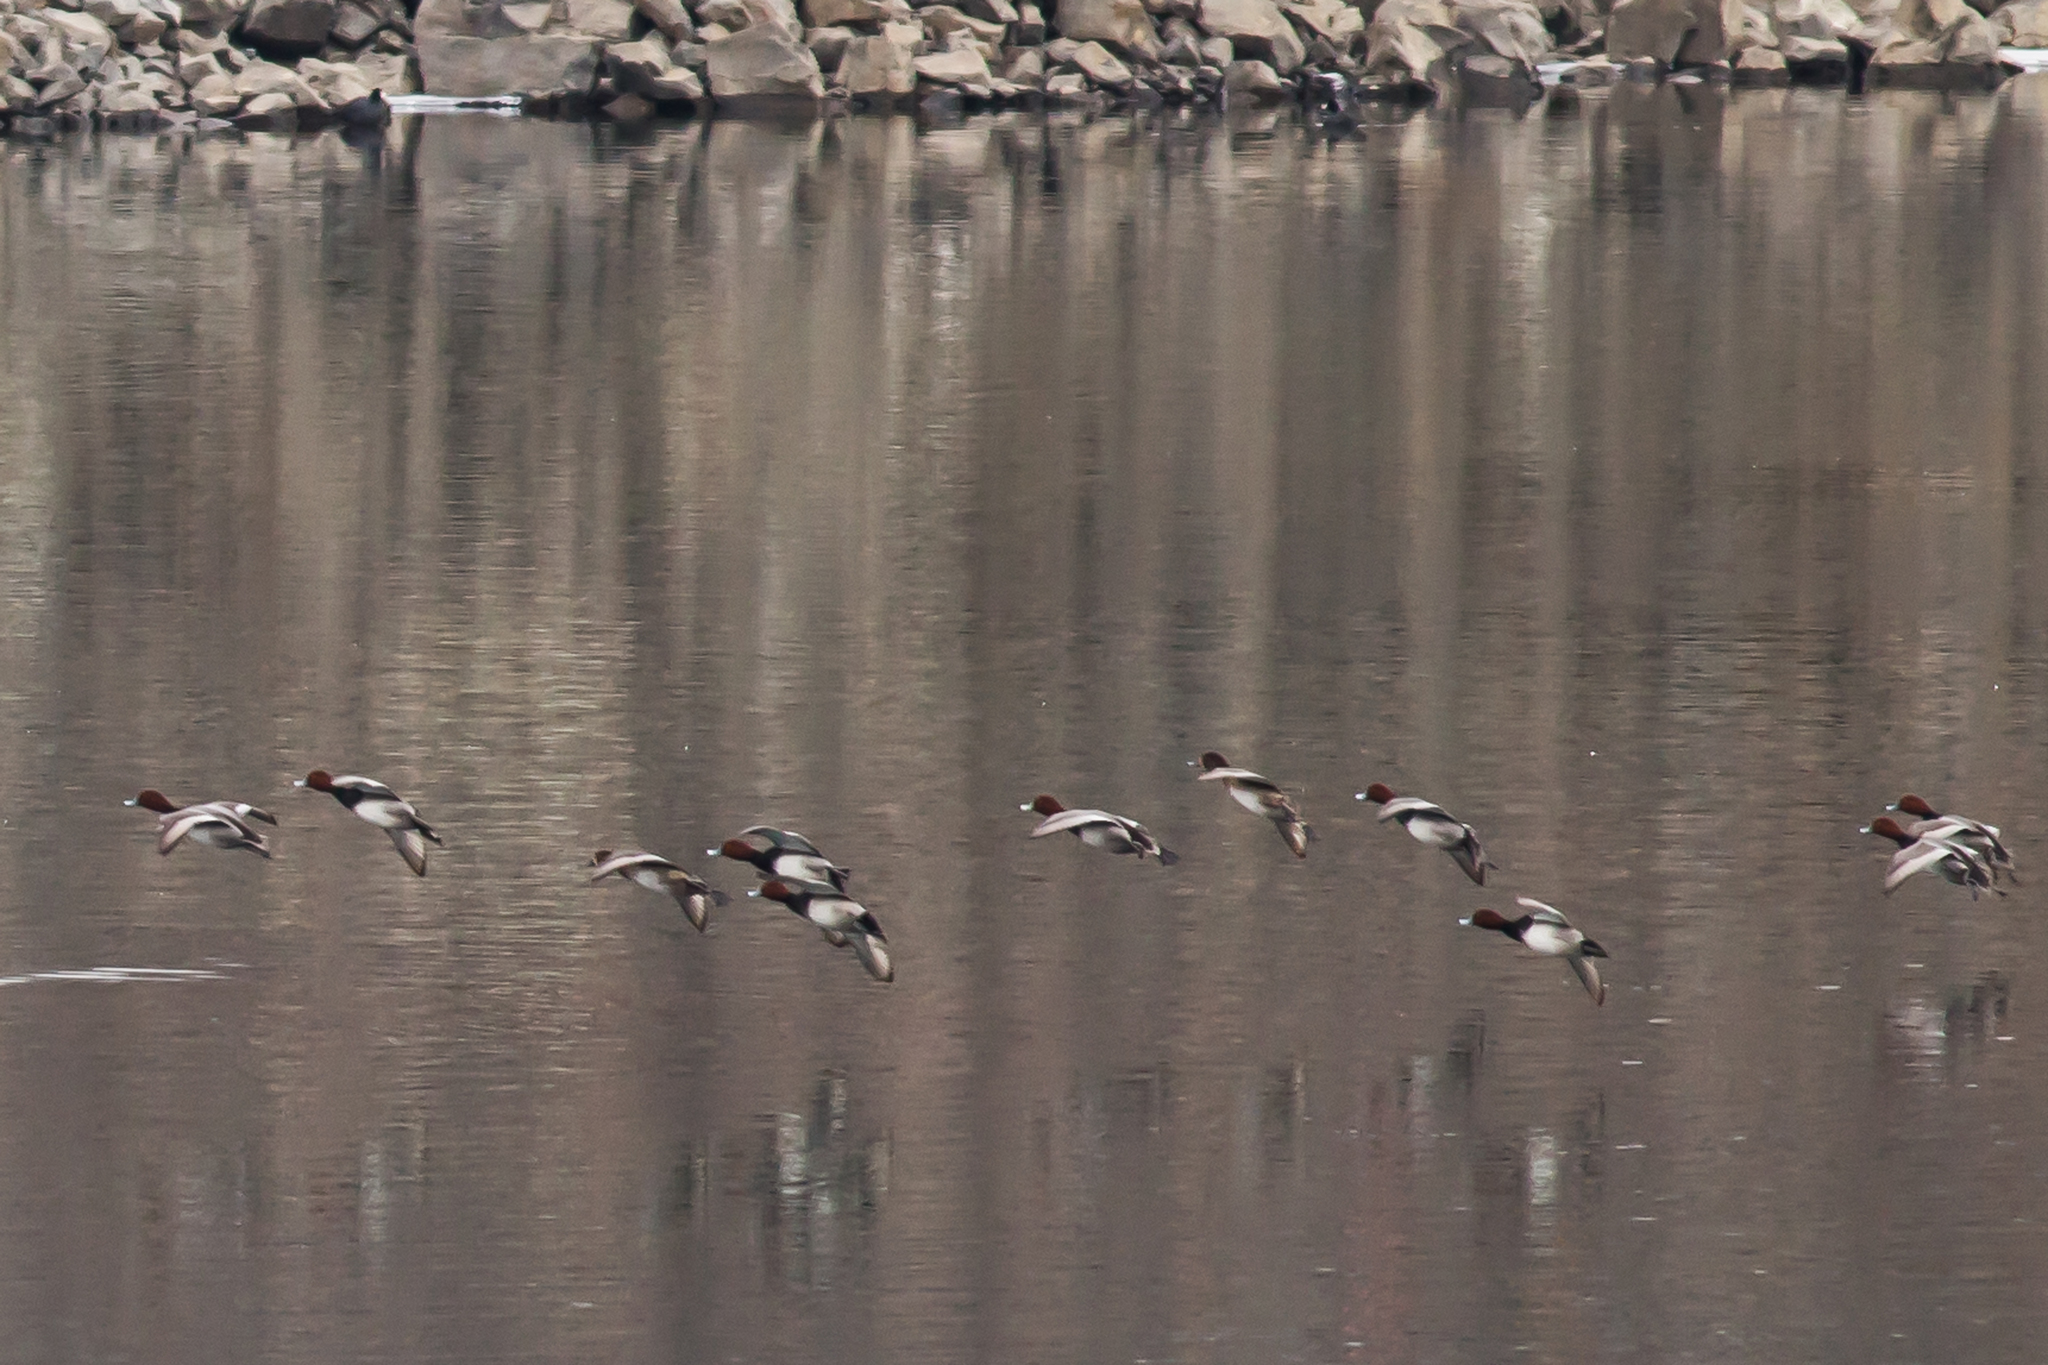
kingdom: Animalia
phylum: Chordata
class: Aves
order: Anseriformes
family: Anatidae
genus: Aythya
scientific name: Aythya americana
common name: Redhead
